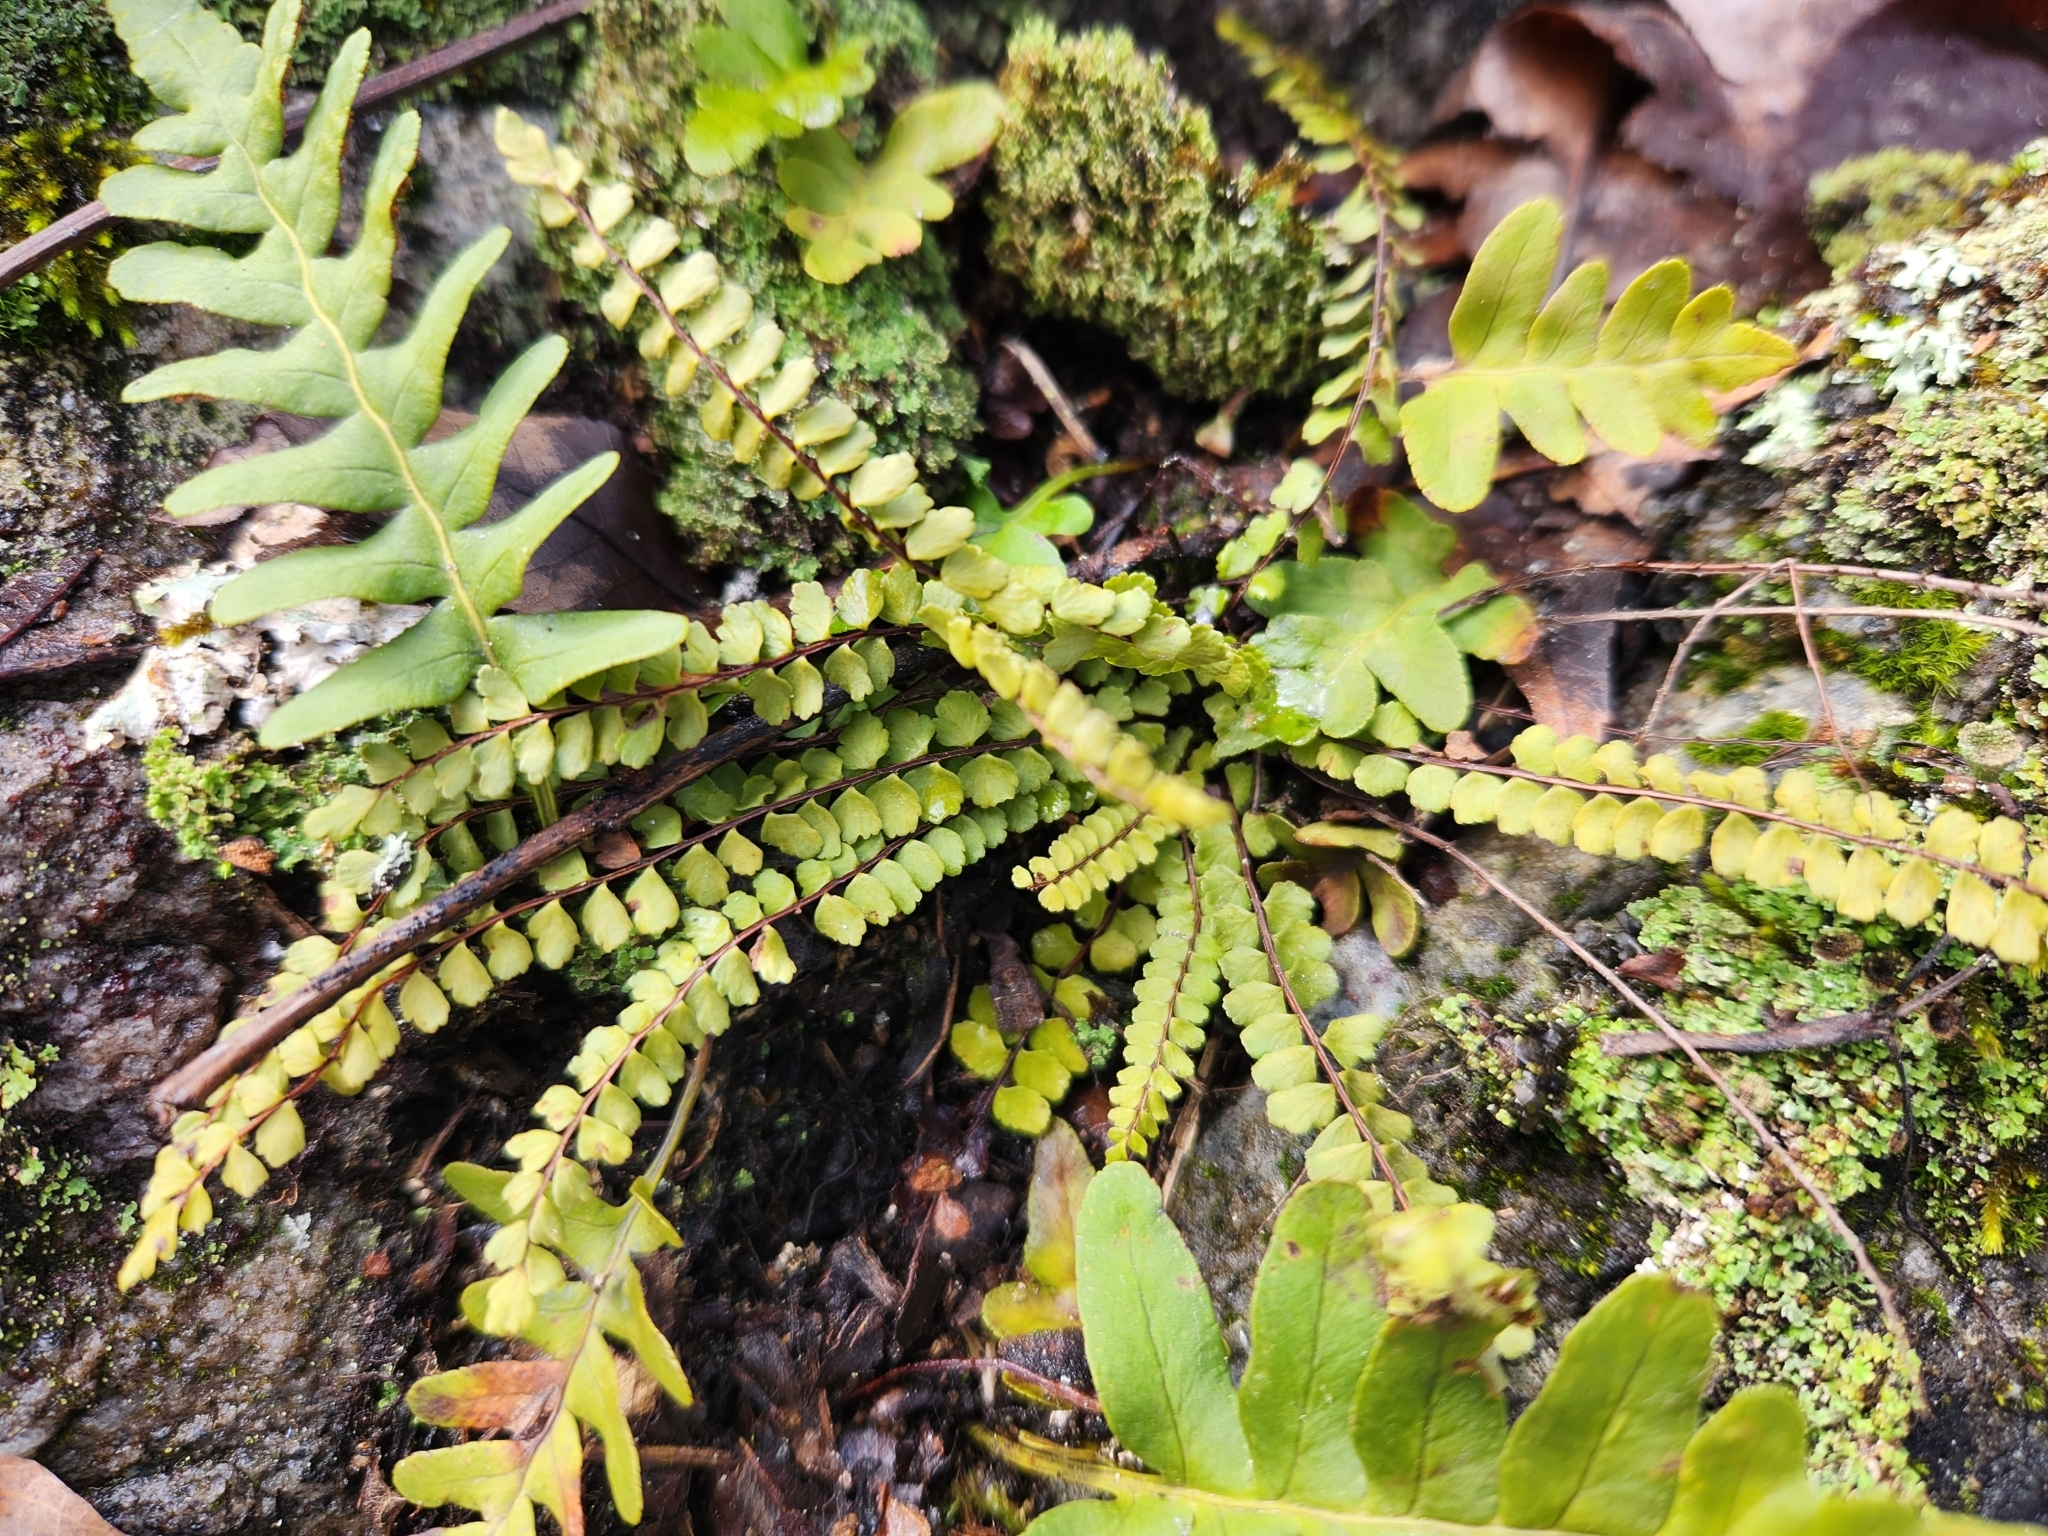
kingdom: Plantae
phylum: Tracheophyta
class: Polypodiopsida
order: Polypodiales
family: Aspleniaceae
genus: Asplenium
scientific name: Asplenium trichomanes
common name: Maidenhair spleenwort
